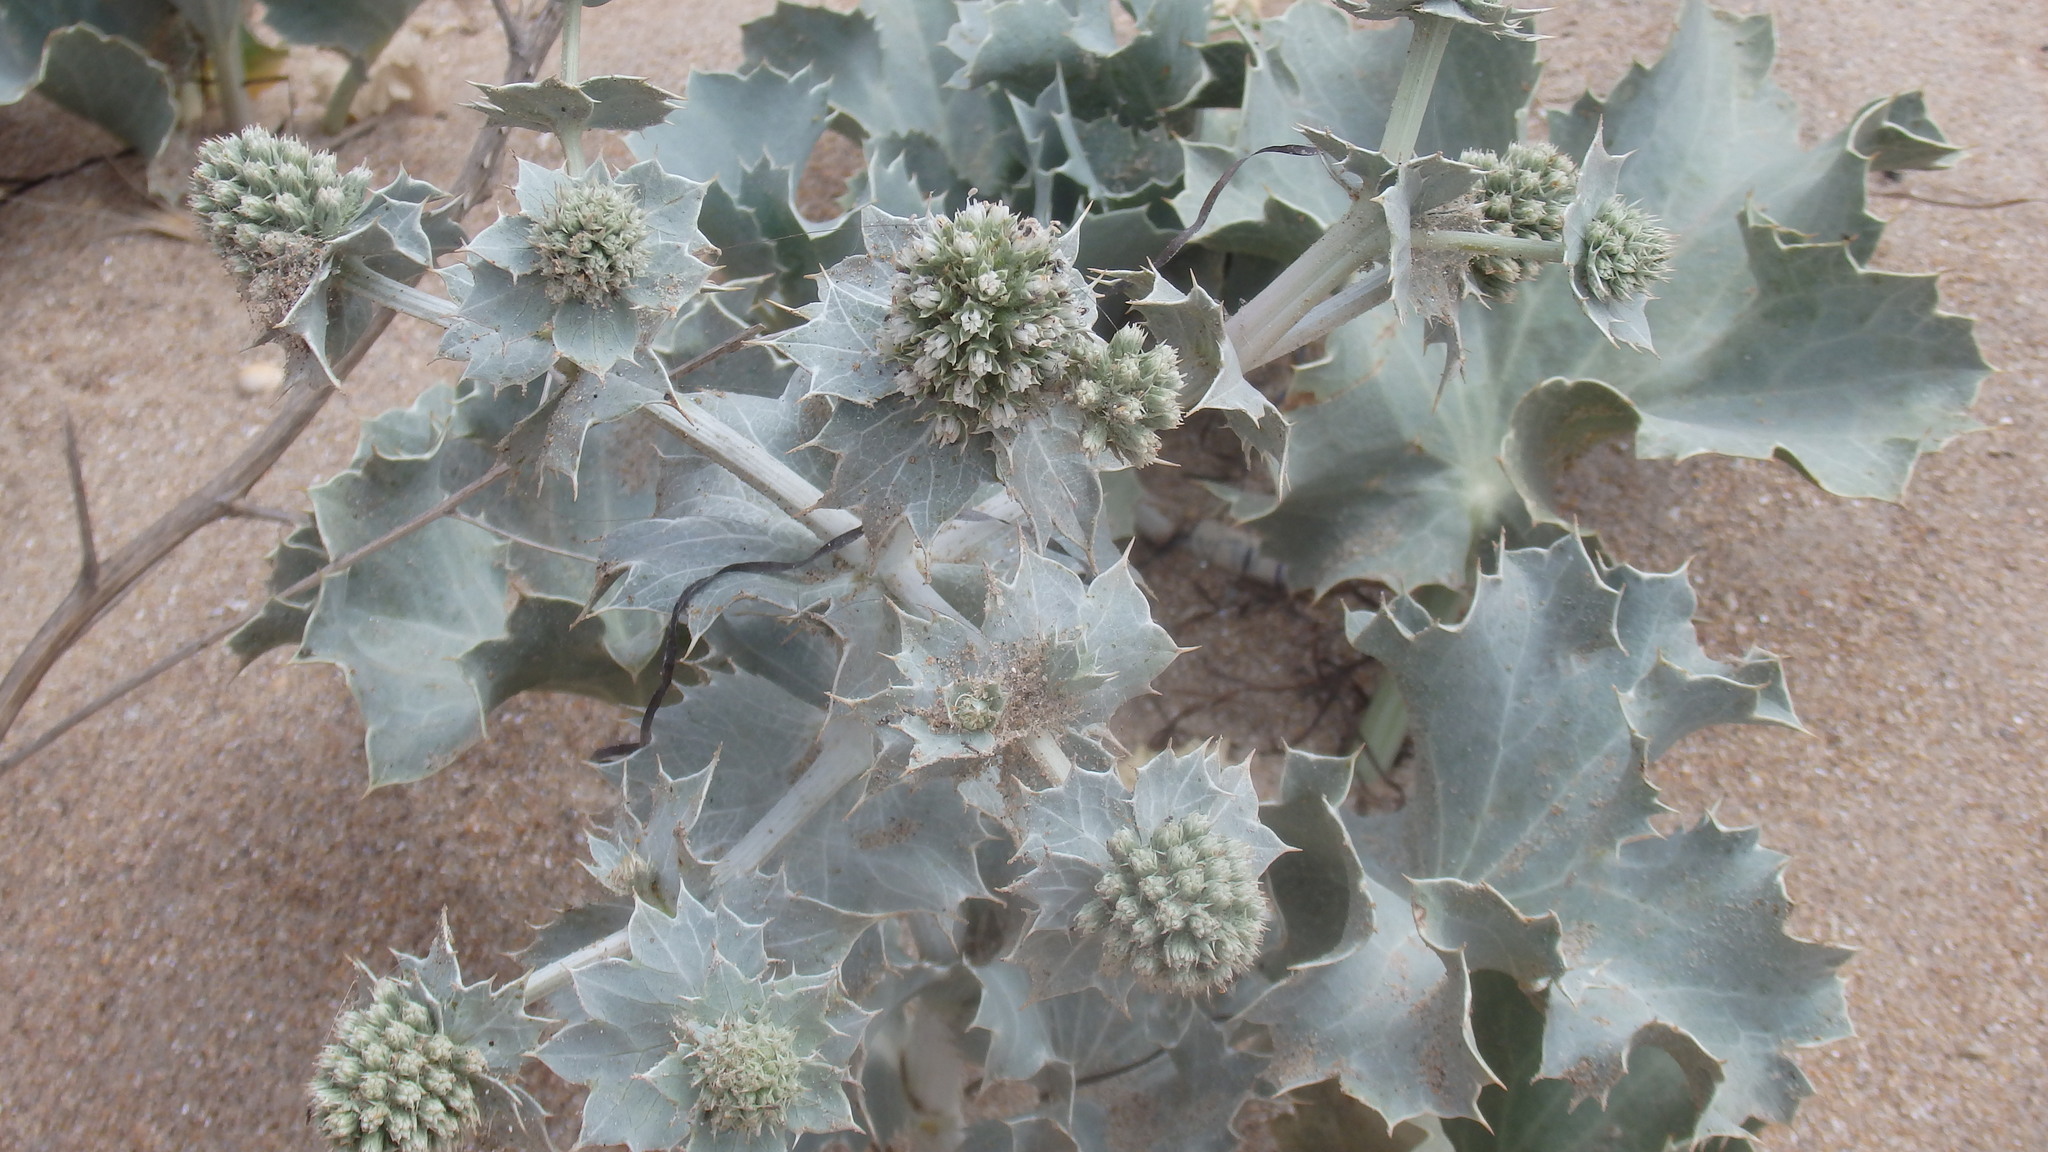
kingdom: Plantae
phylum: Tracheophyta
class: Magnoliopsida
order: Apiales
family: Apiaceae
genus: Eryngium
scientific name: Eryngium maritimum
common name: Sea-holly
